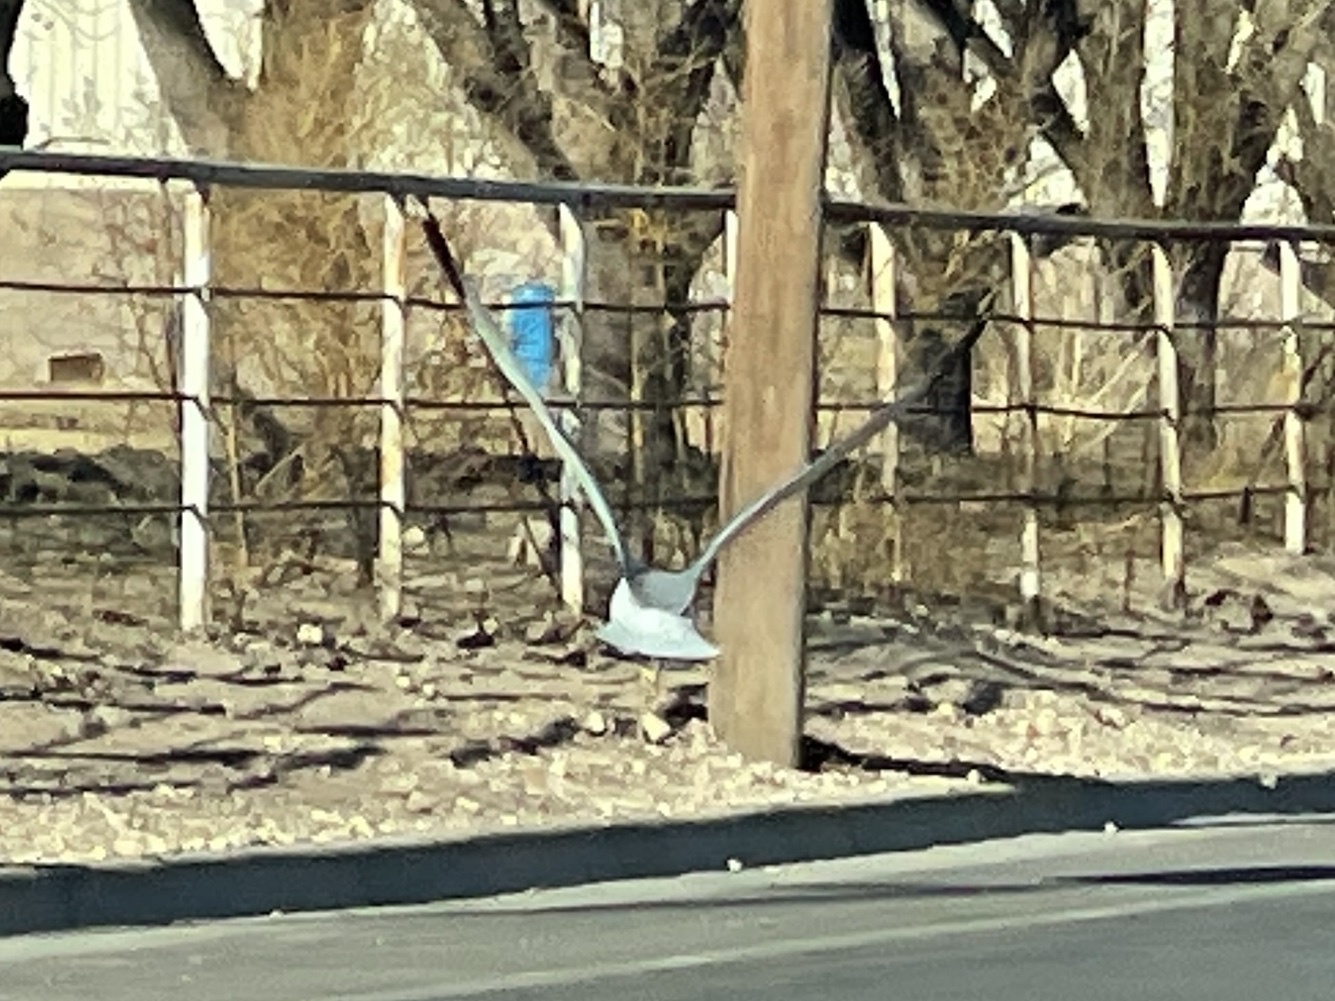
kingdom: Animalia
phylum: Chordata
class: Aves
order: Charadriiformes
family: Laridae
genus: Larus
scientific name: Larus delawarensis
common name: Ring-billed gull
